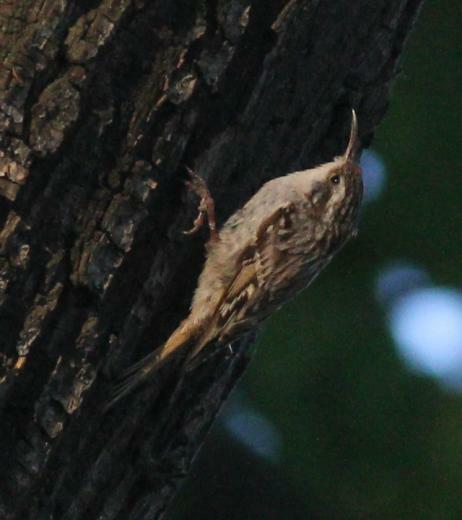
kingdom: Animalia
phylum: Chordata
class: Aves
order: Passeriformes
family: Certhiidae
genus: Certhia
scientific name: Certhia brachydactyla
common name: Short-toed treecreeper
